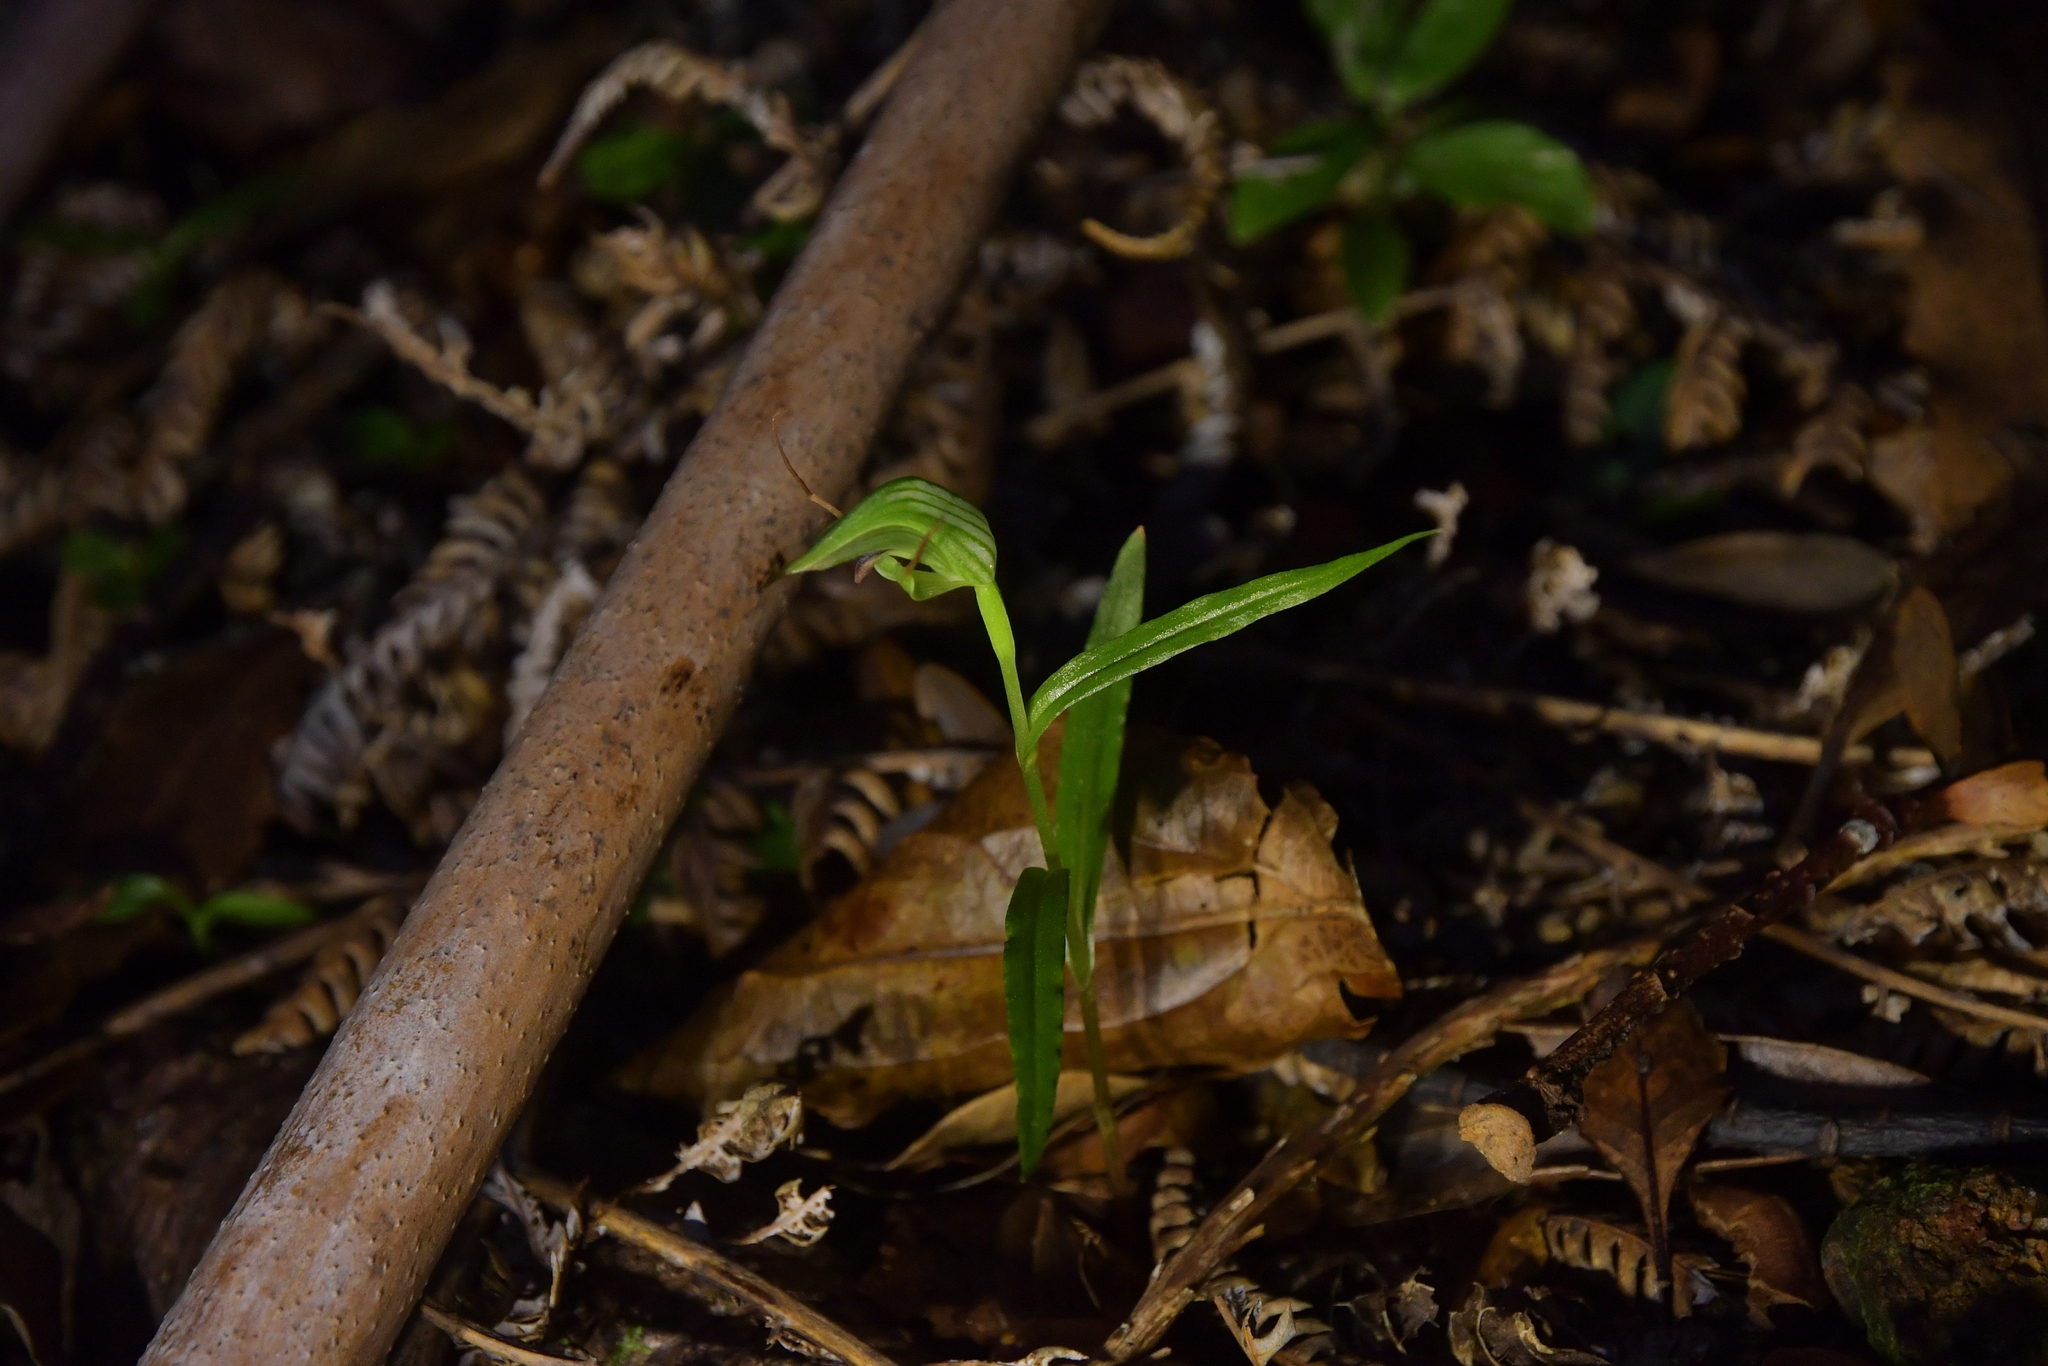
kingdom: Plantae
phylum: Tracheophyta
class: Liliopsida
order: Asparagales
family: Orchidaceae
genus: Pterostylis
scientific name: Pterostylis graminea
